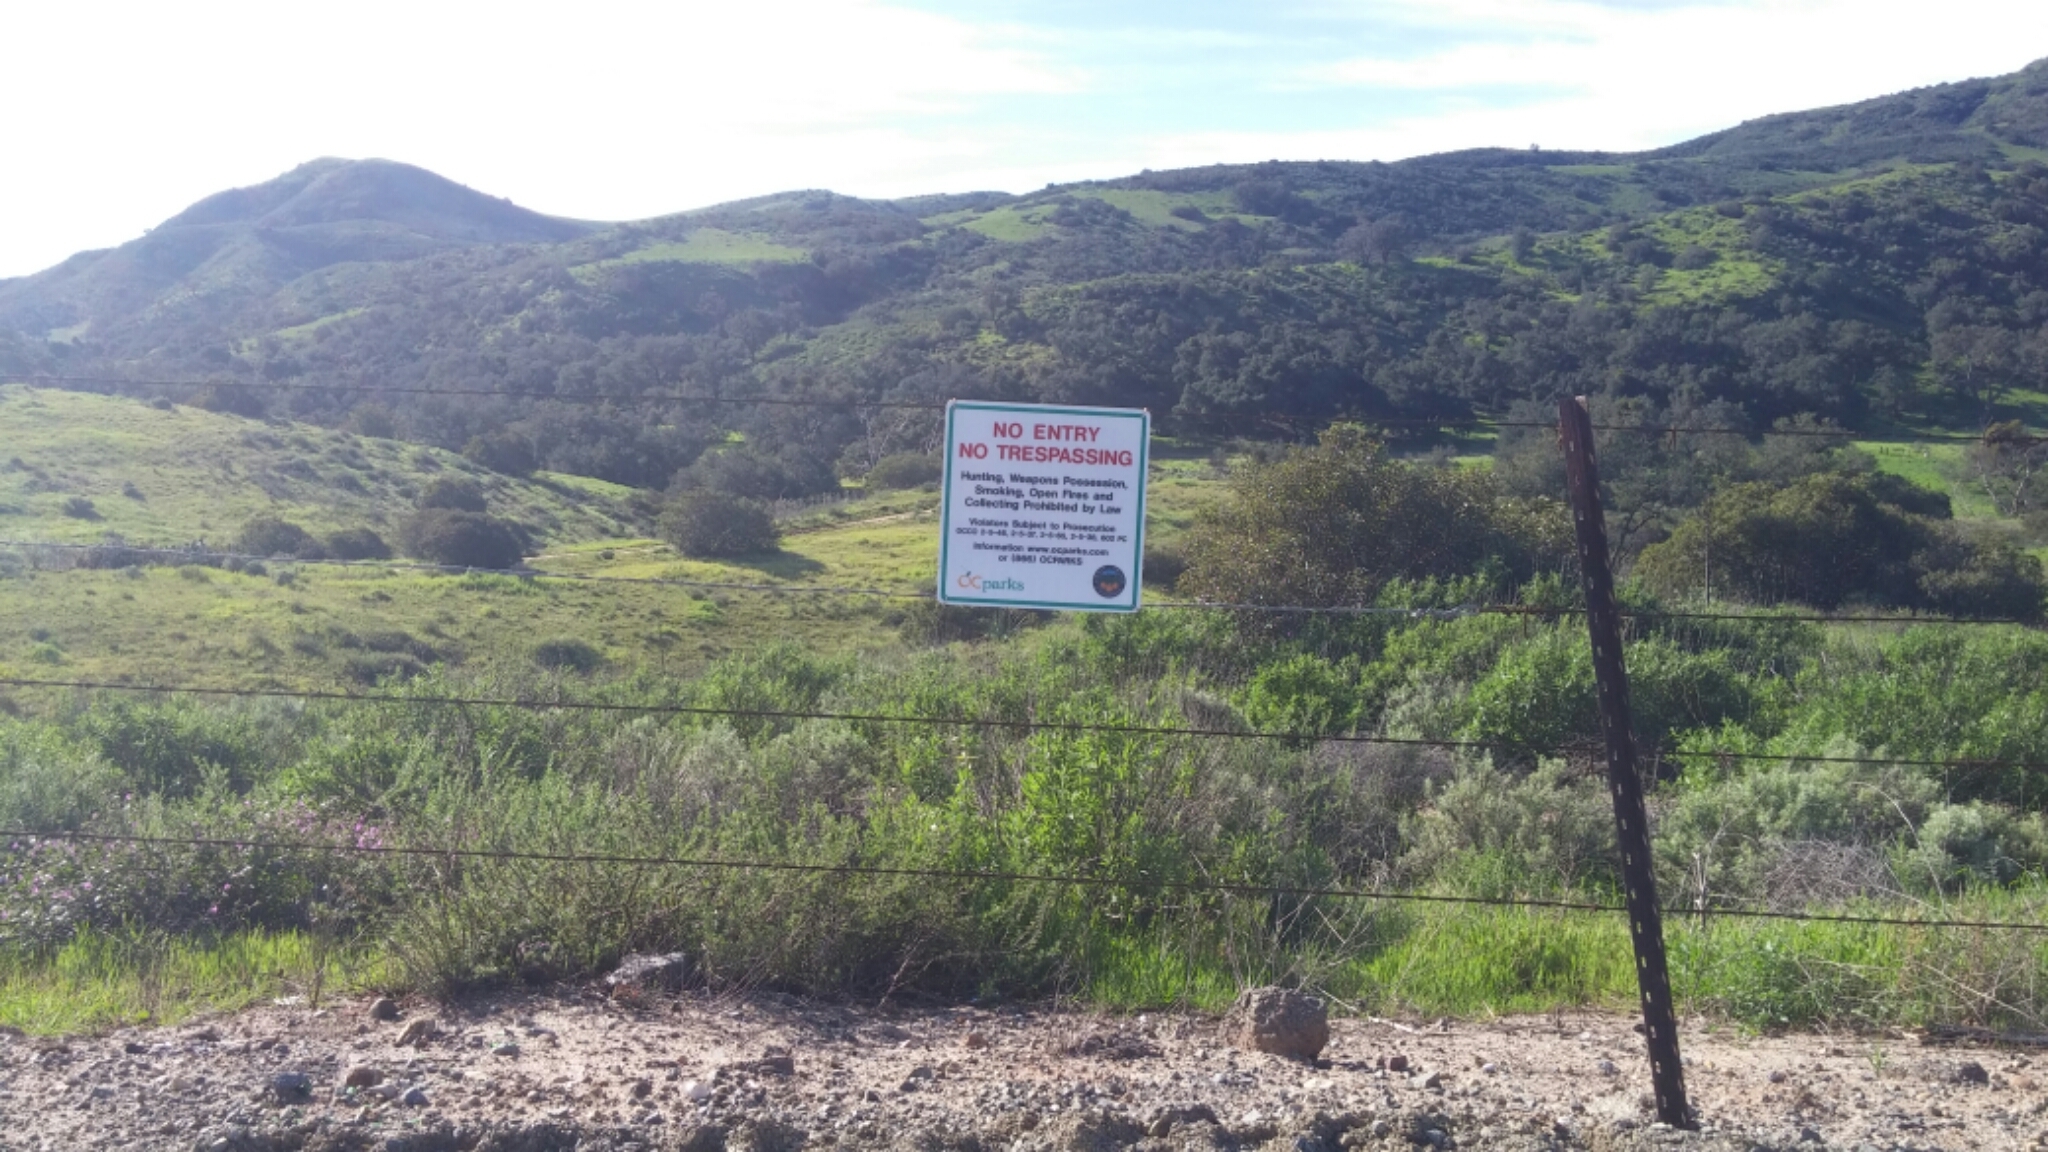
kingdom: Plantae
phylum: Tracheophyta
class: Magnoliopsida
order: Fagales
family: Fagaceae
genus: Quercus
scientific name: Quercus agrifolia
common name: California live oak
